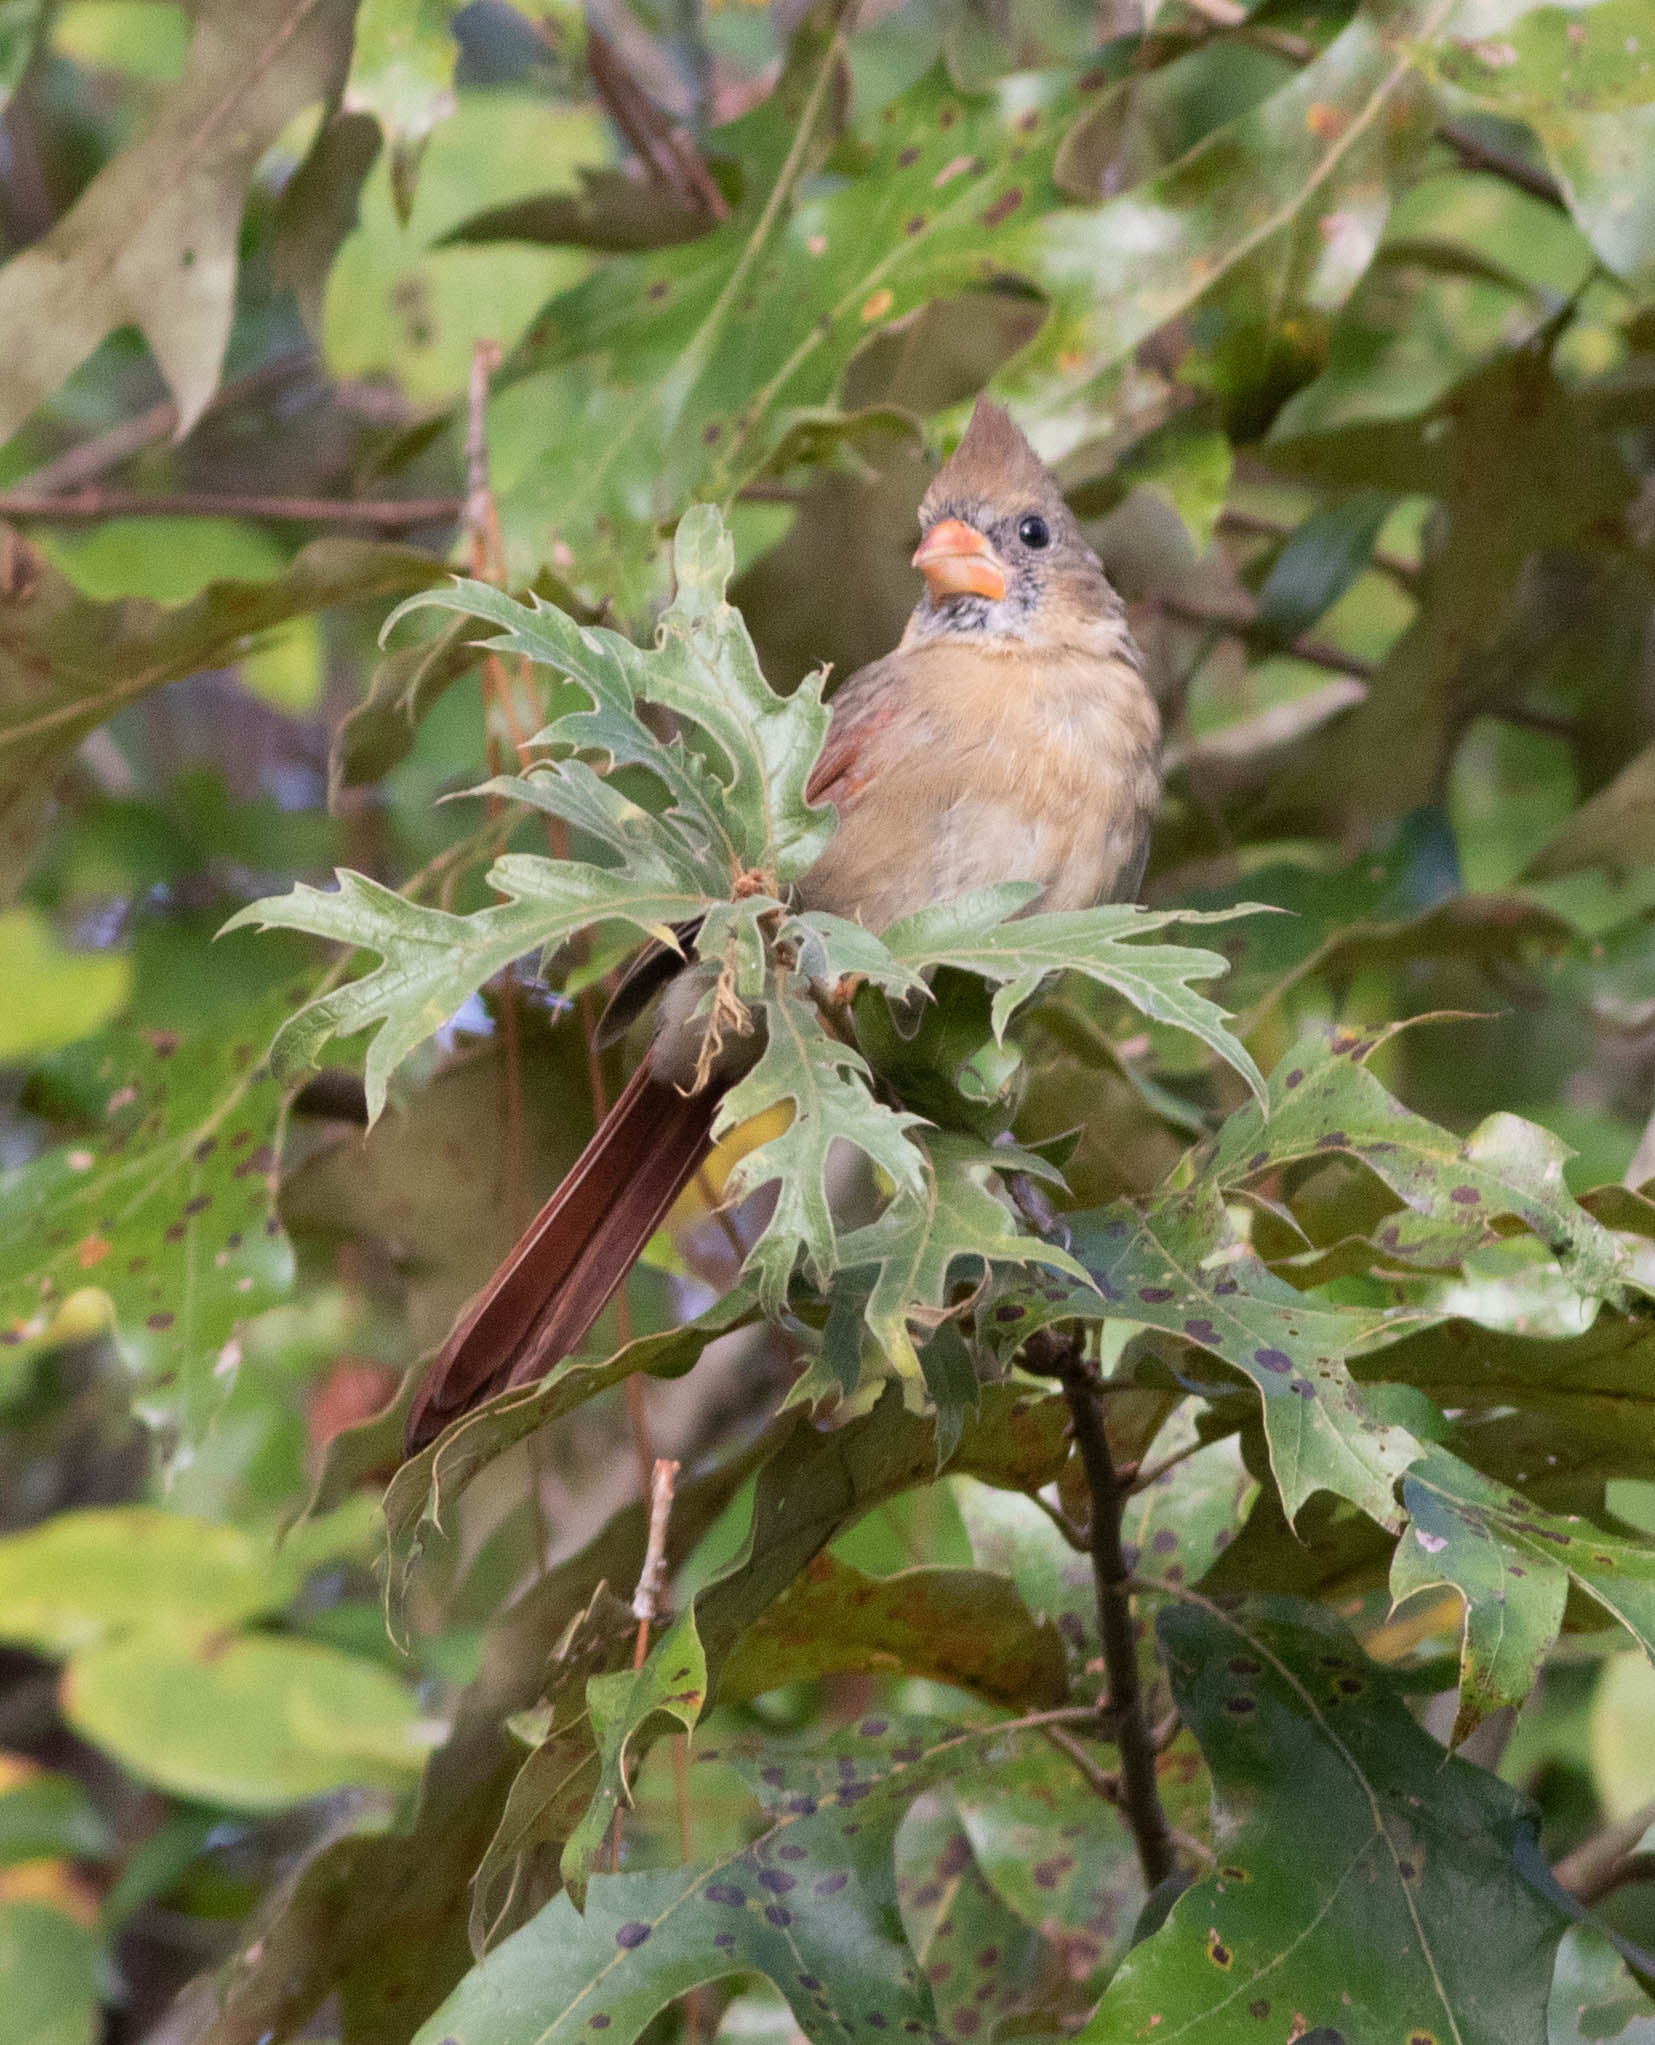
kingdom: Animalia
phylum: Chordata
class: Aves
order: Passeriformes
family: Cardinalidae
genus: Cardinalis
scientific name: Cardinalis cardinalis
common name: Northern cardinal
